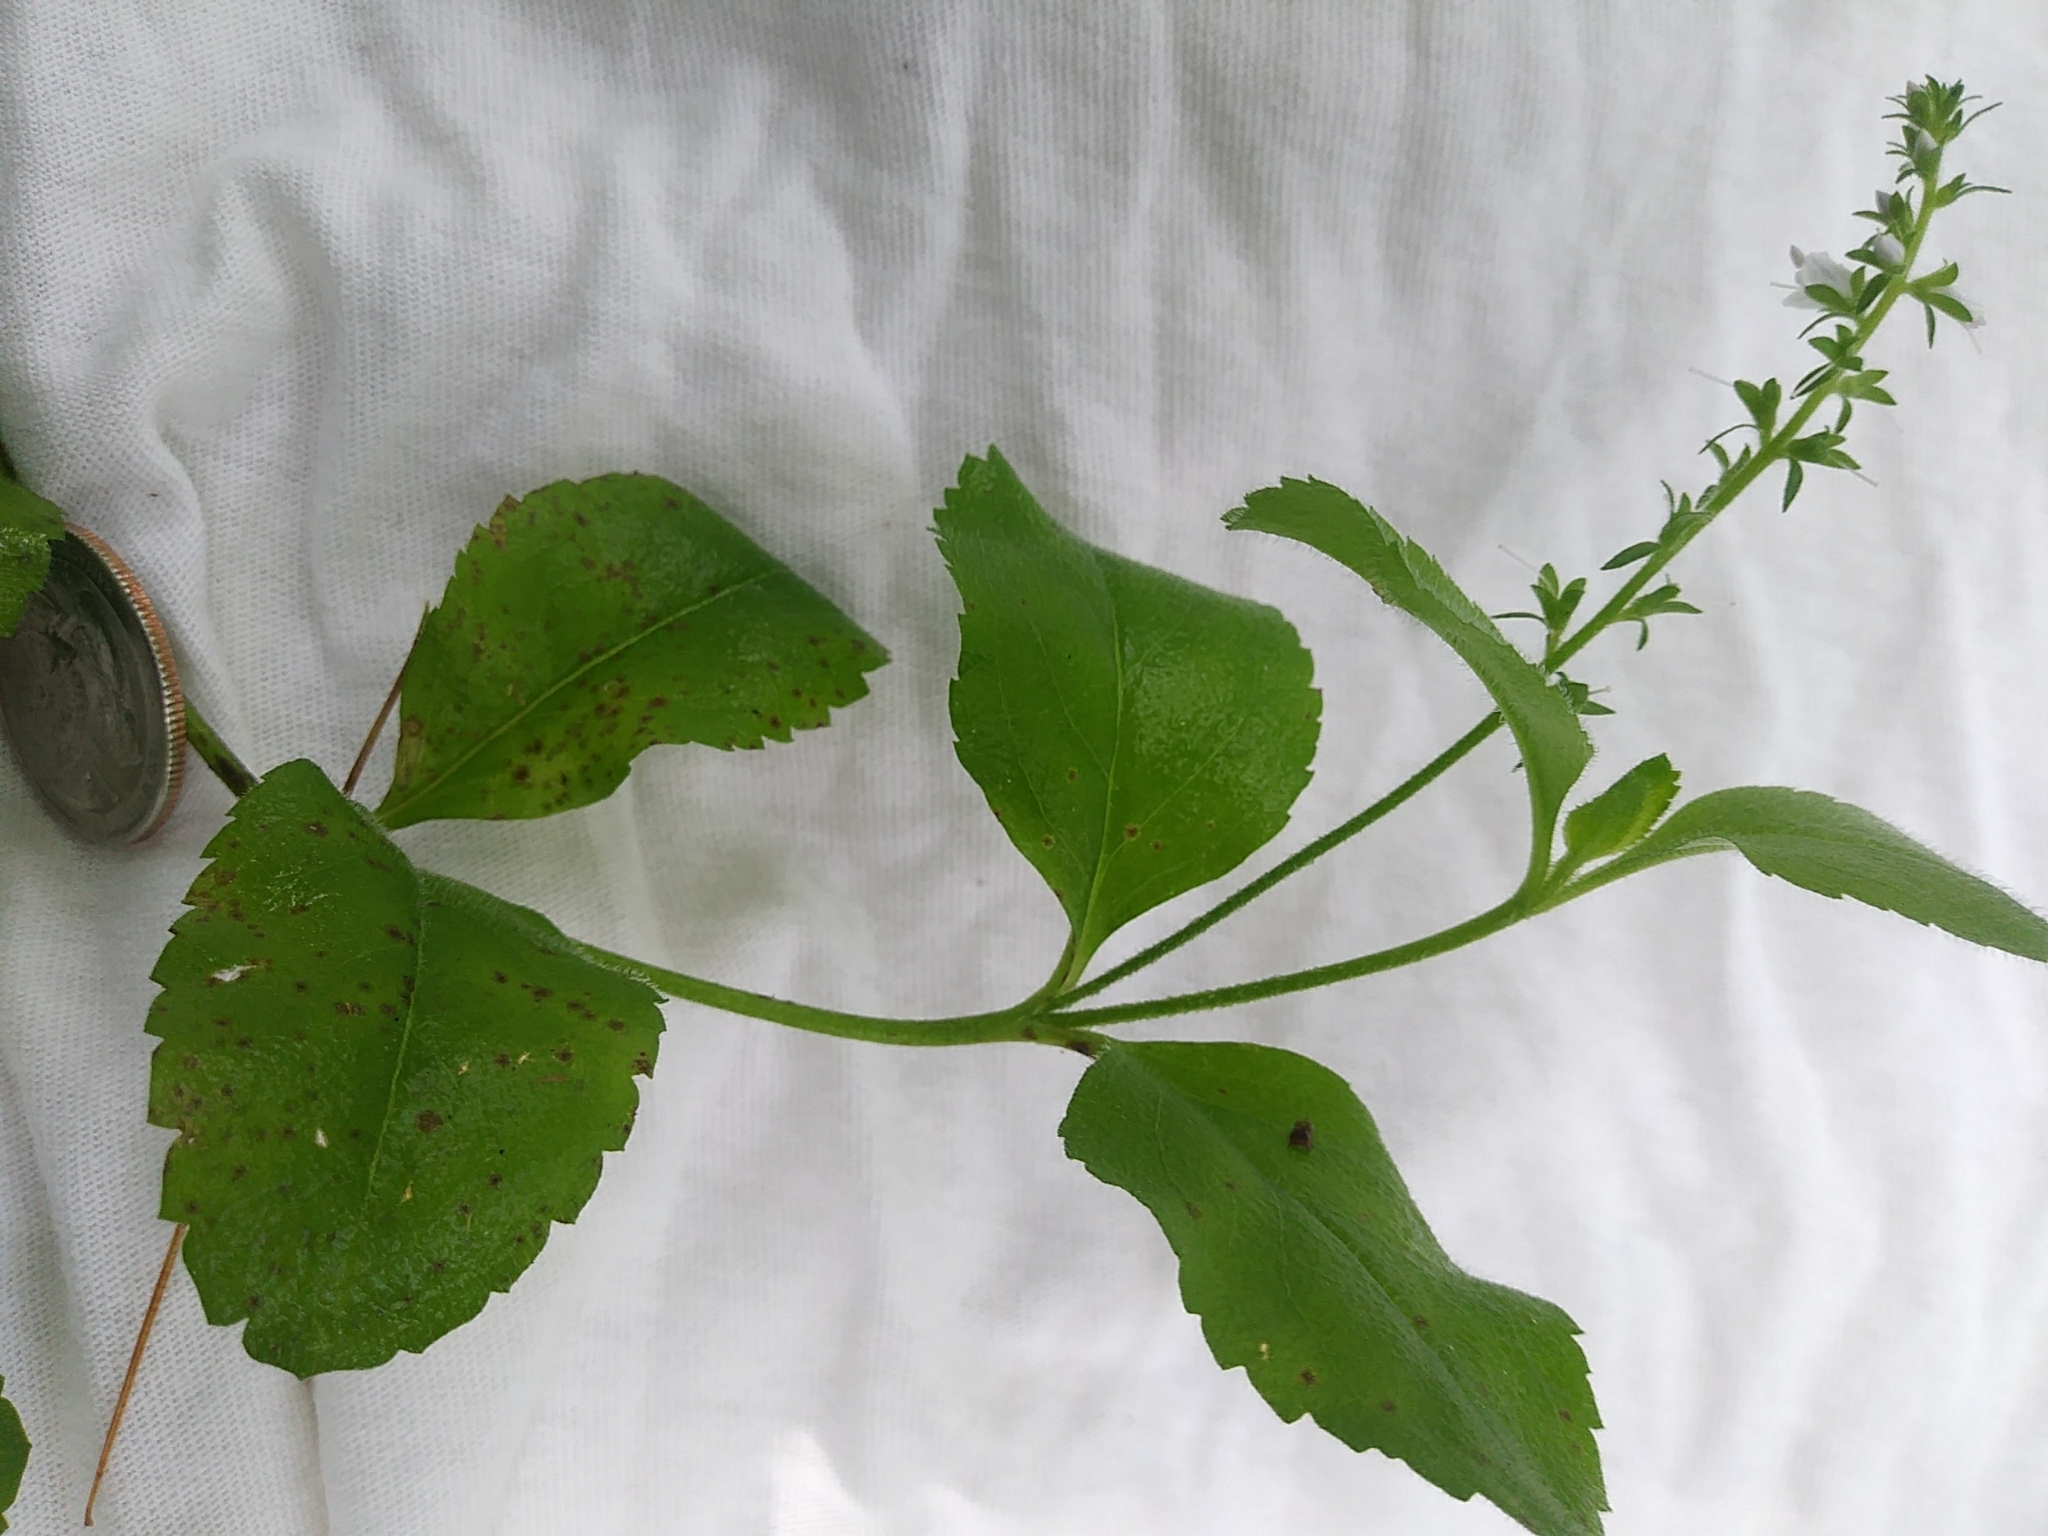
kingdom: Plantae
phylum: Tracheophyta
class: Magnoliopsida
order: Lamiales
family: Plantaginaceae
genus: Veronica
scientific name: Veronica officinalis
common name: Common speedwell
